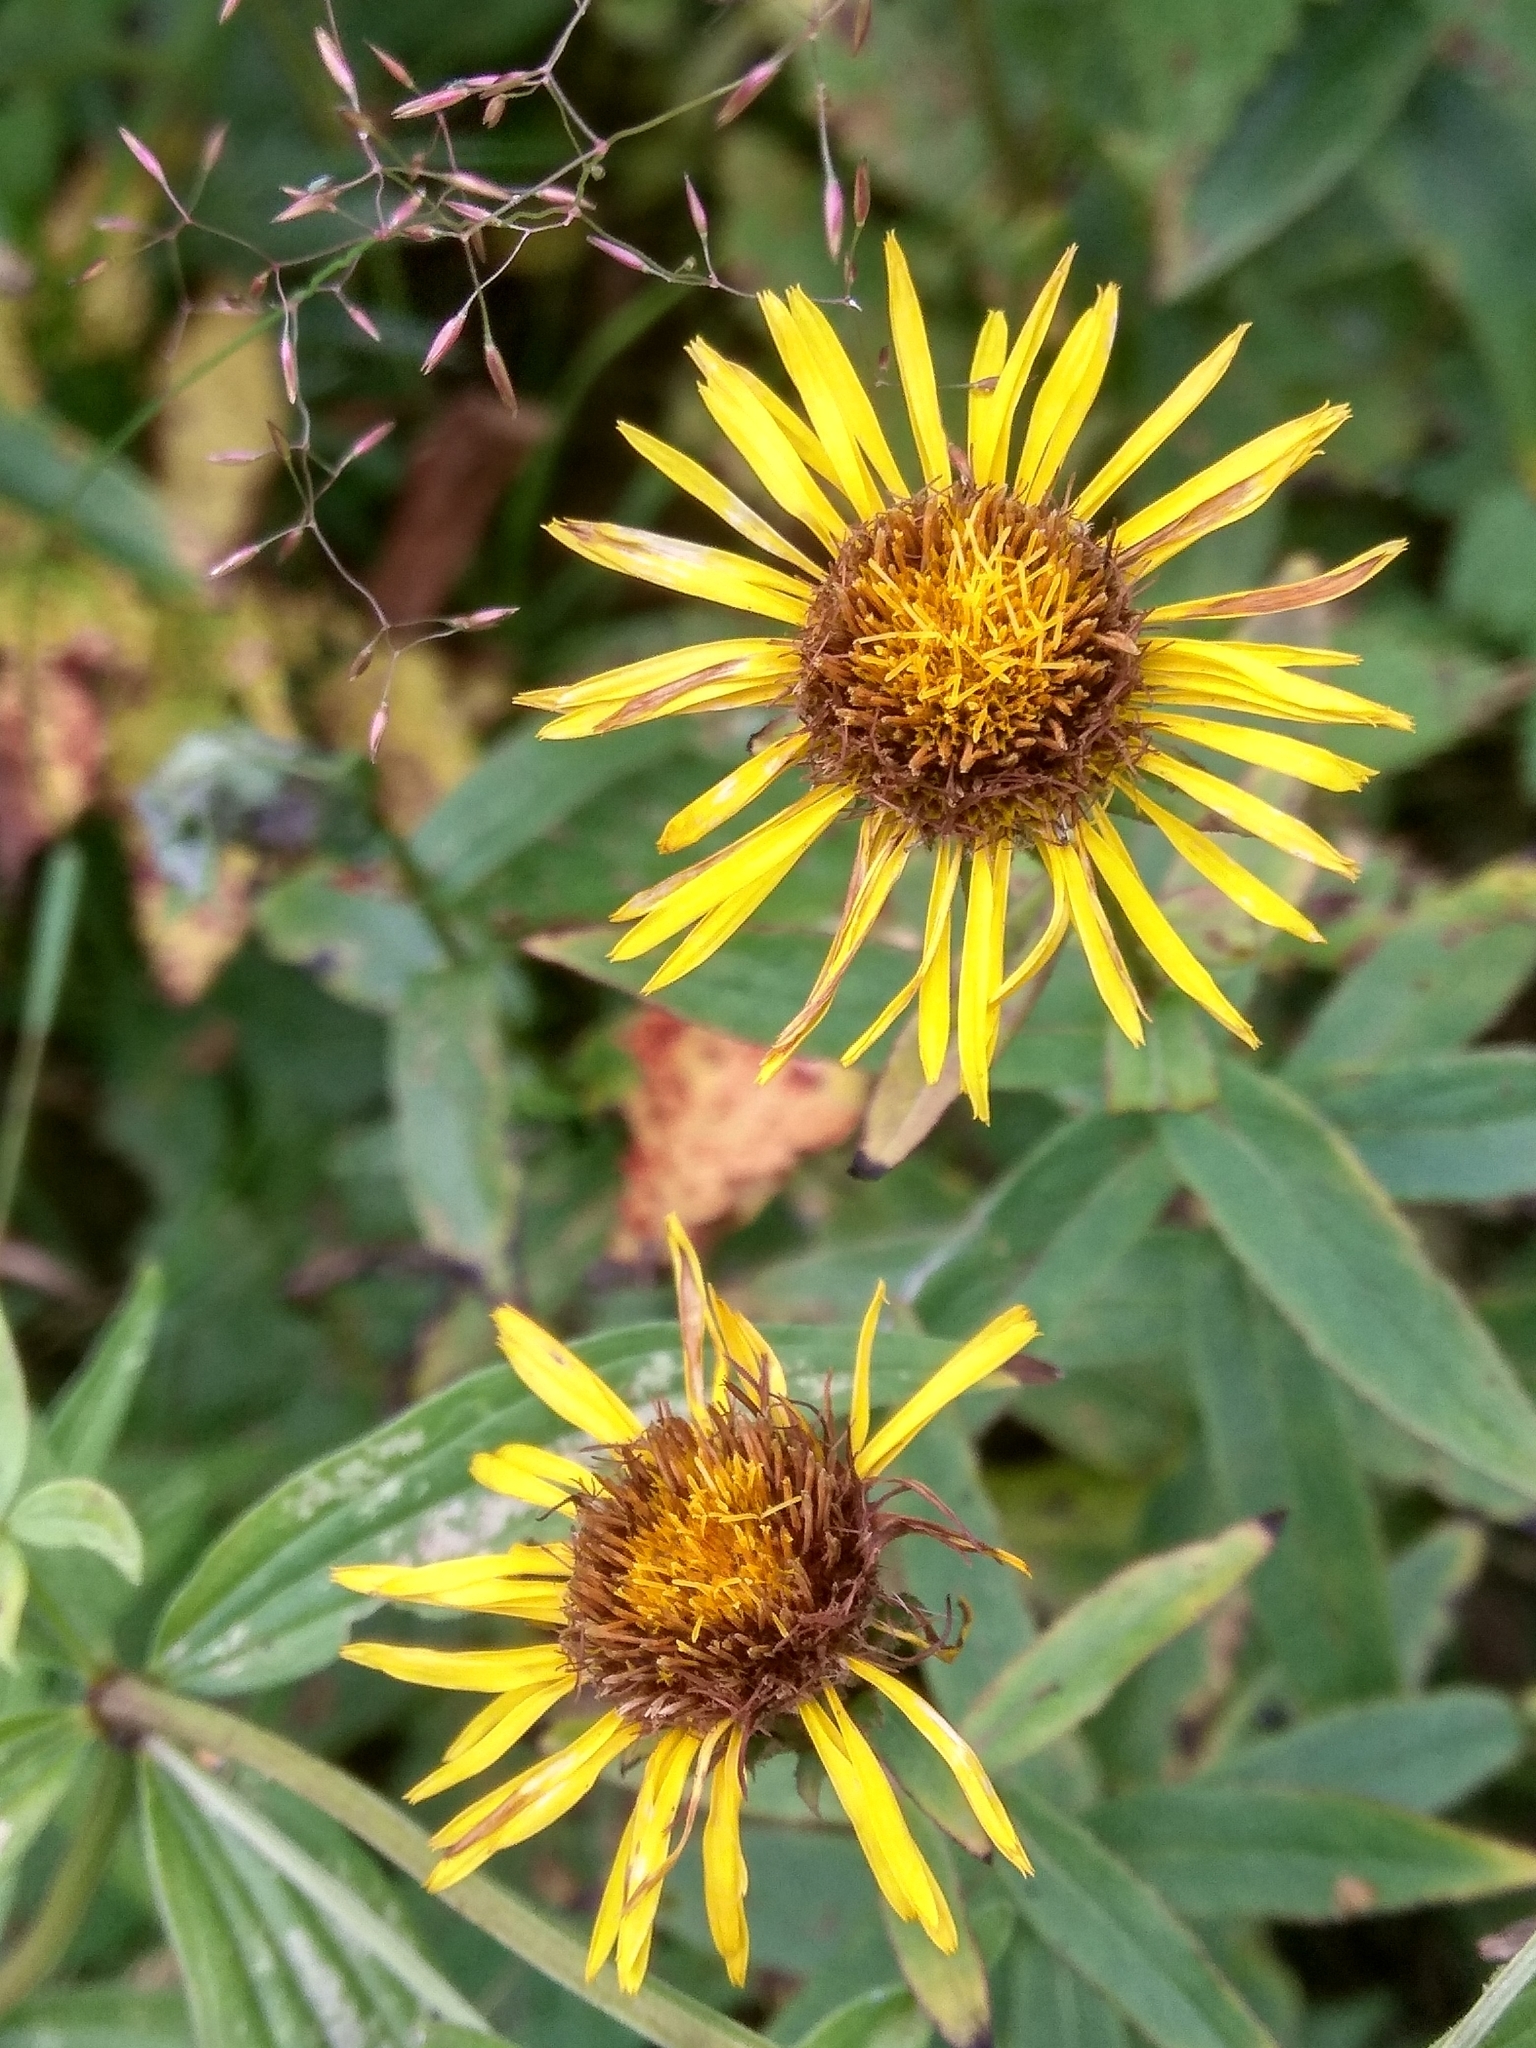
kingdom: Plantae
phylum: Tracheophyta
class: Magnoliopsida
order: Asterales
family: Asteraceae
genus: Pentanema
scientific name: Pentanema salicinum
